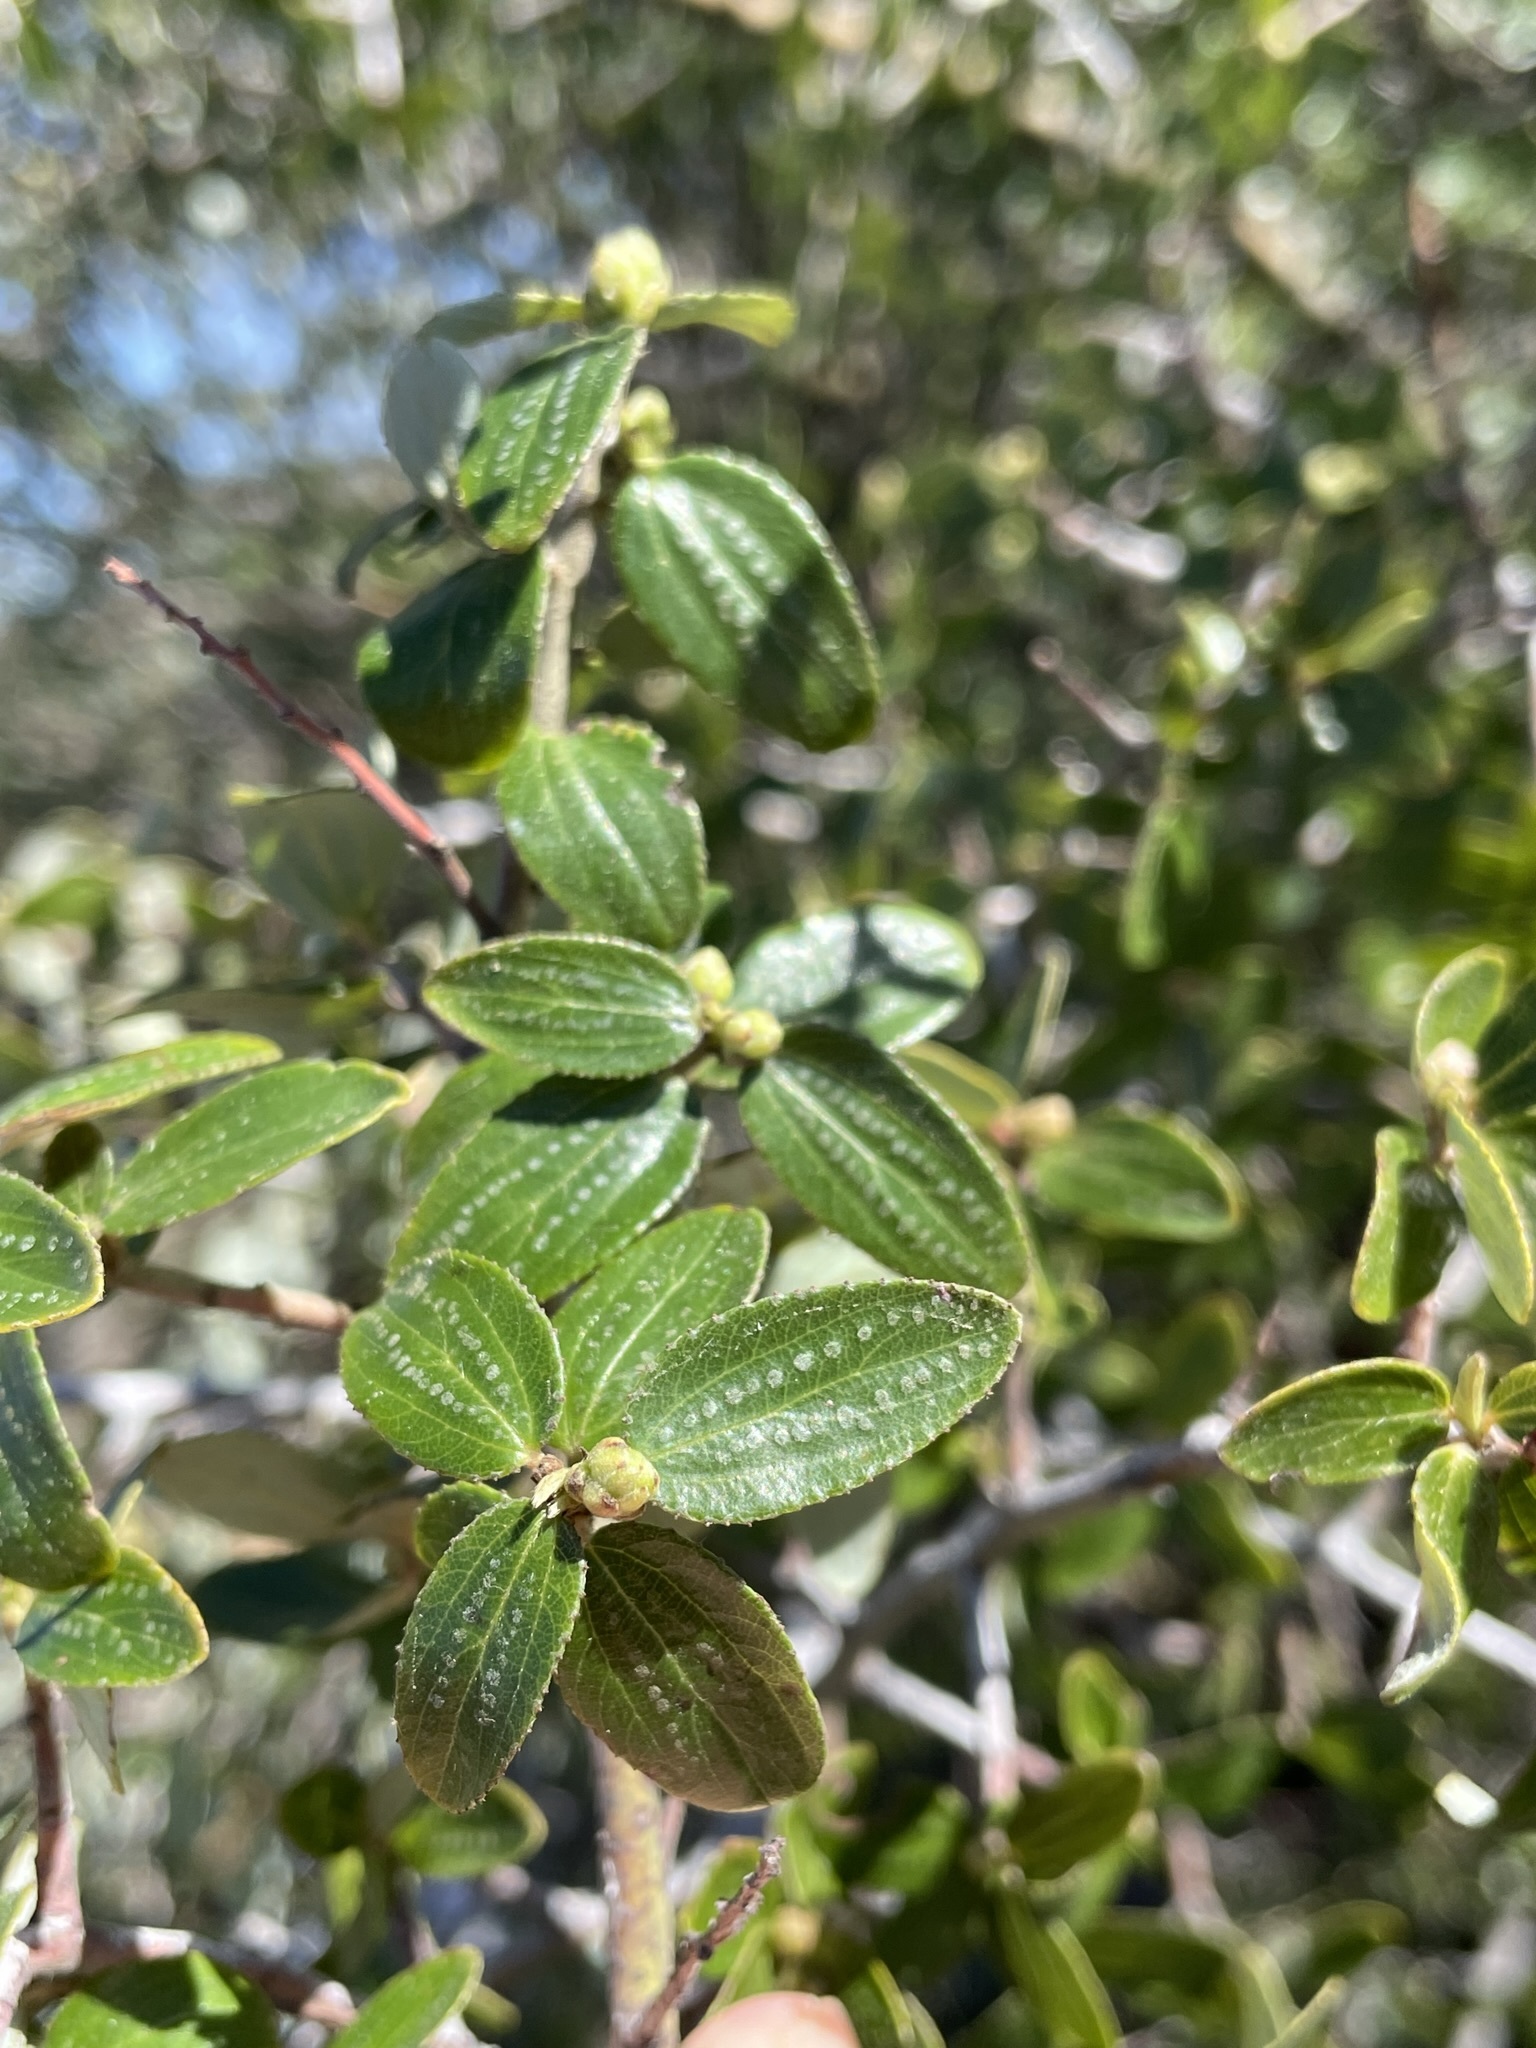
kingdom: Plantae
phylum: Tracheophyta
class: Magnoliopsida
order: Rosales
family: Rhamnaceae
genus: Ceanothus
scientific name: Ceanothus oliganthus
